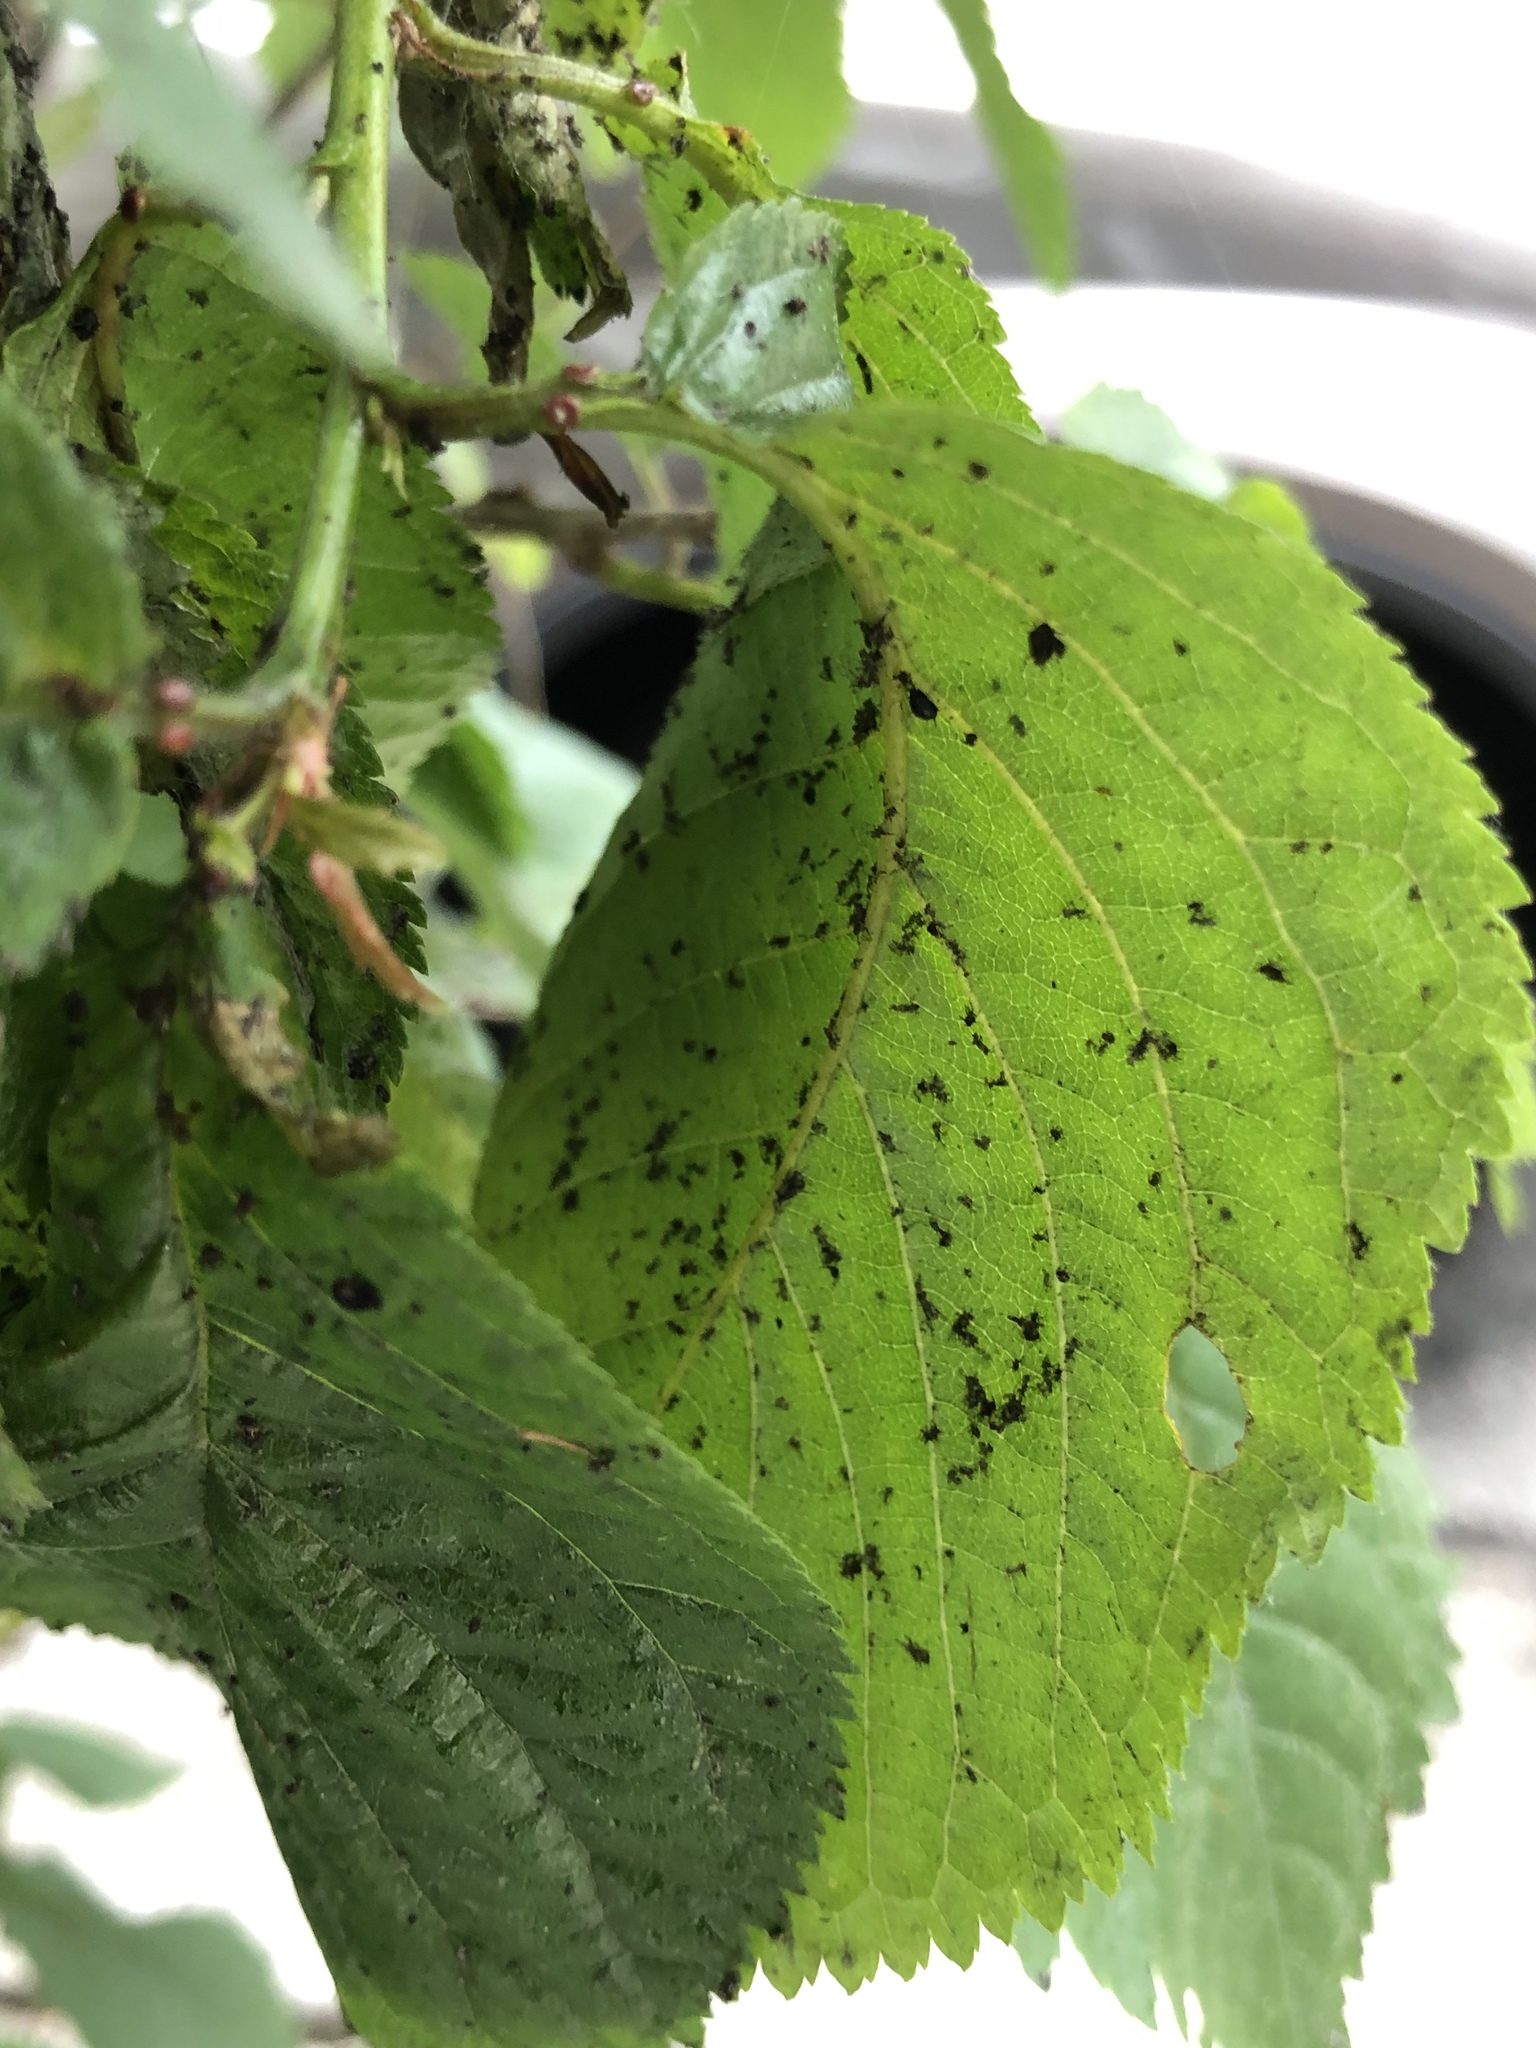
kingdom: Animalia
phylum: Arthropoda
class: Insecta
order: Hemiptera
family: Aphididae
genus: Myzus
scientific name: Myzus cerasi
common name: Black cherry aphid
